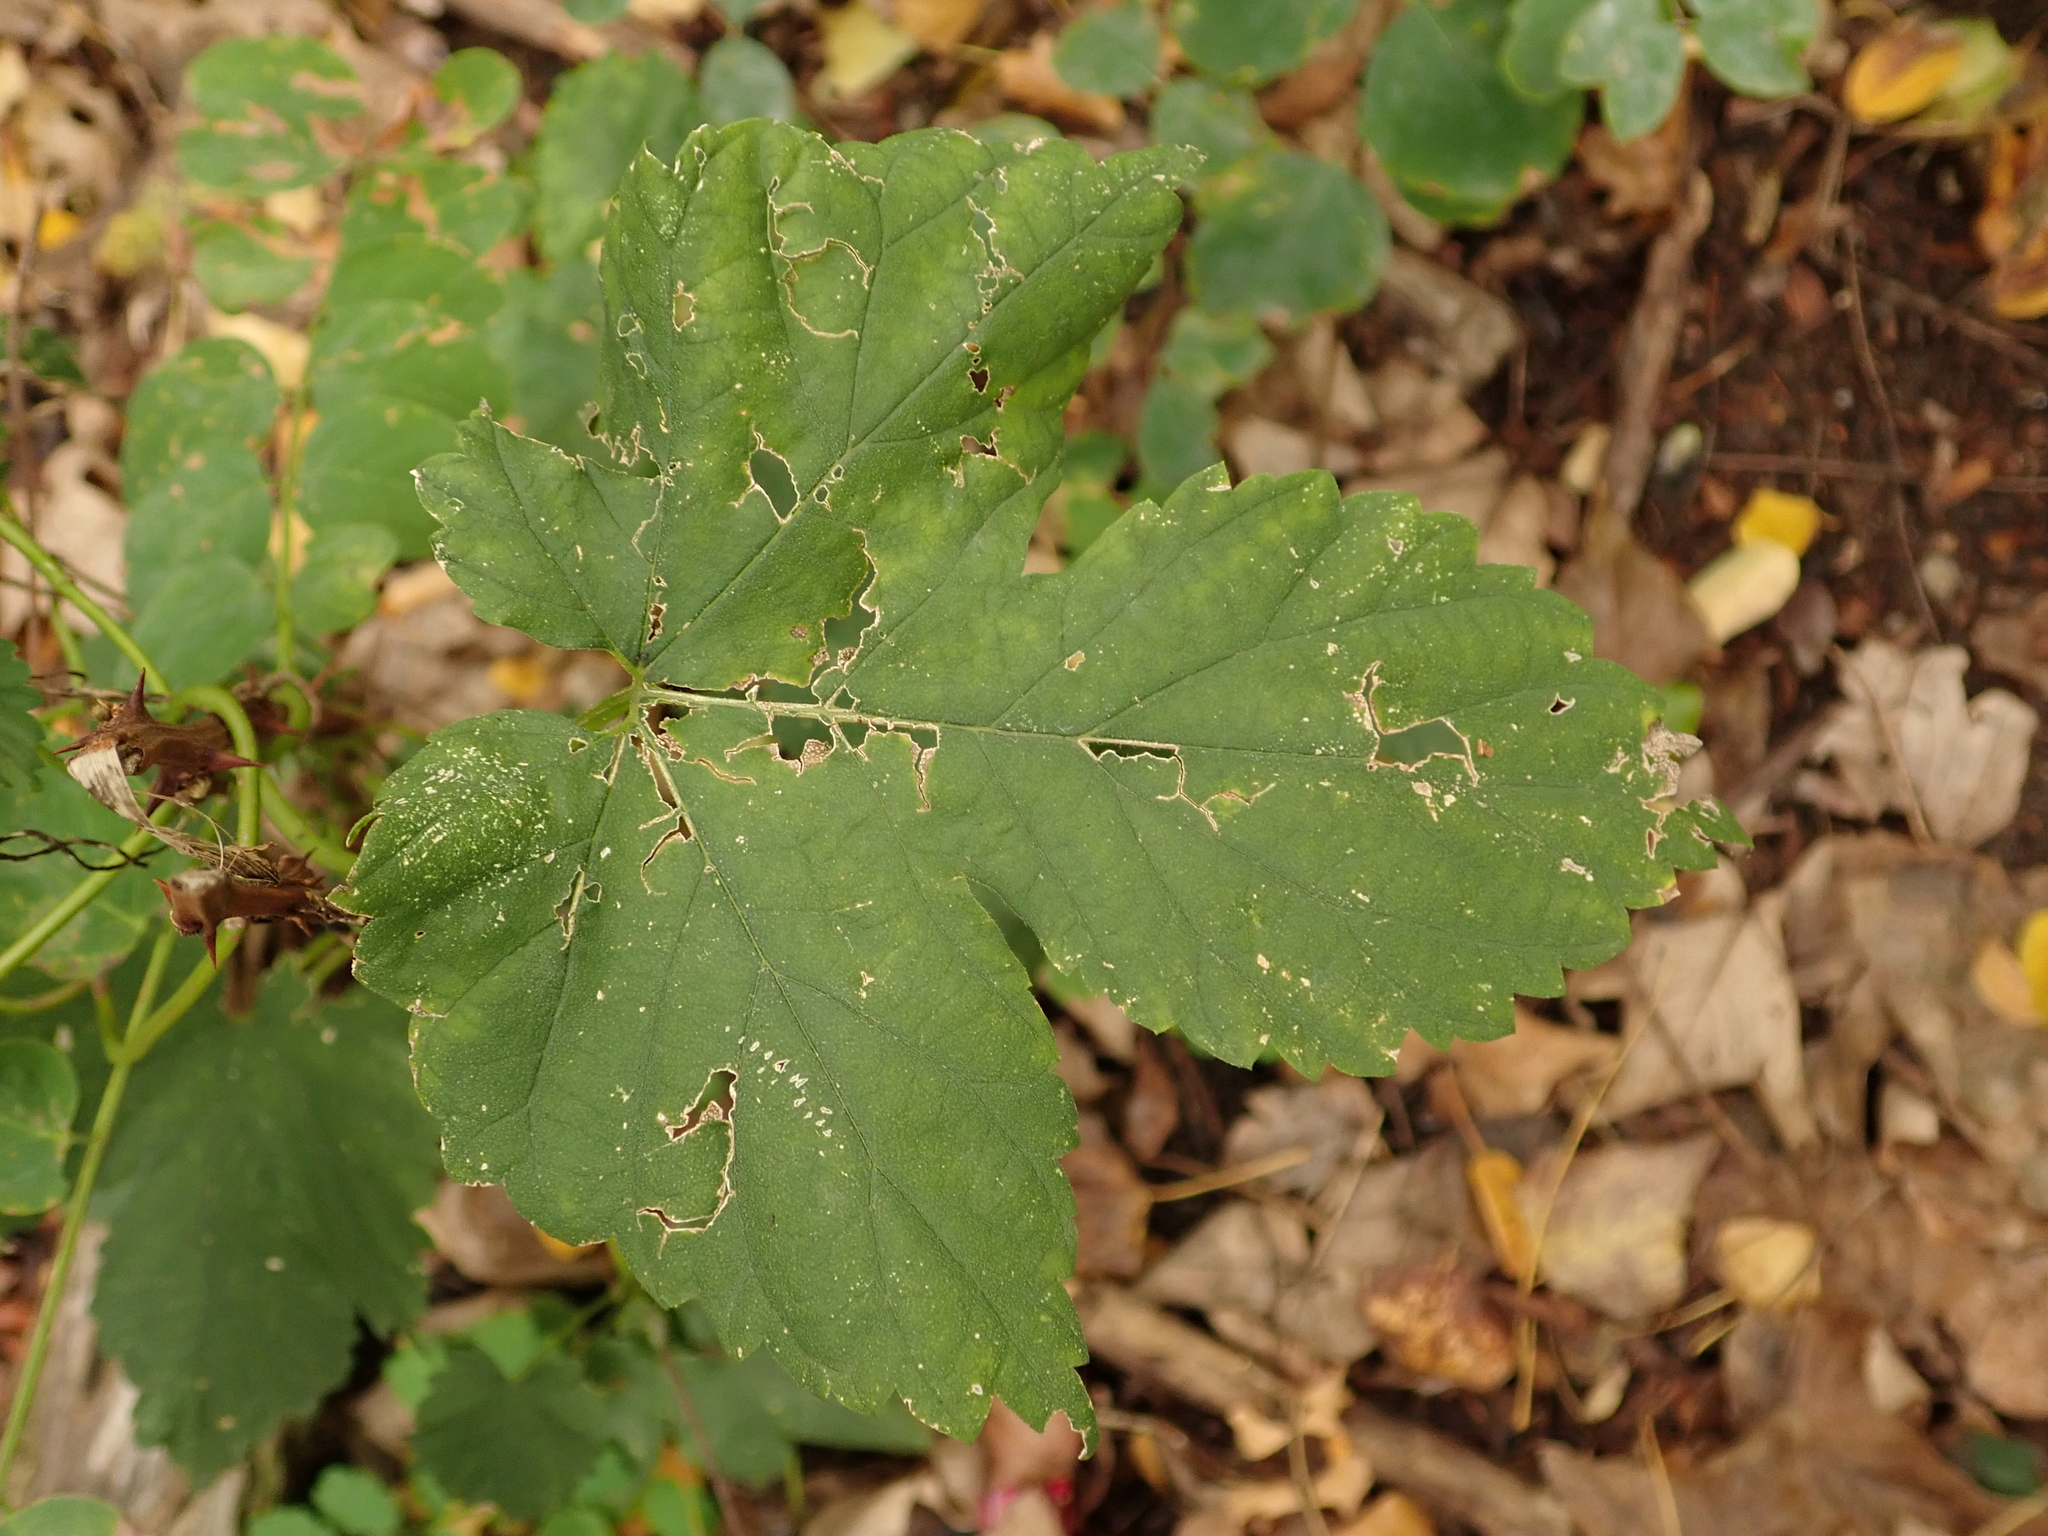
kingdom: Plantae
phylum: Tracheophyta
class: Magnoliopsida
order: Rosales
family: Cannabaceae
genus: Humulus
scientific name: Humulus lupulus
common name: Hop
